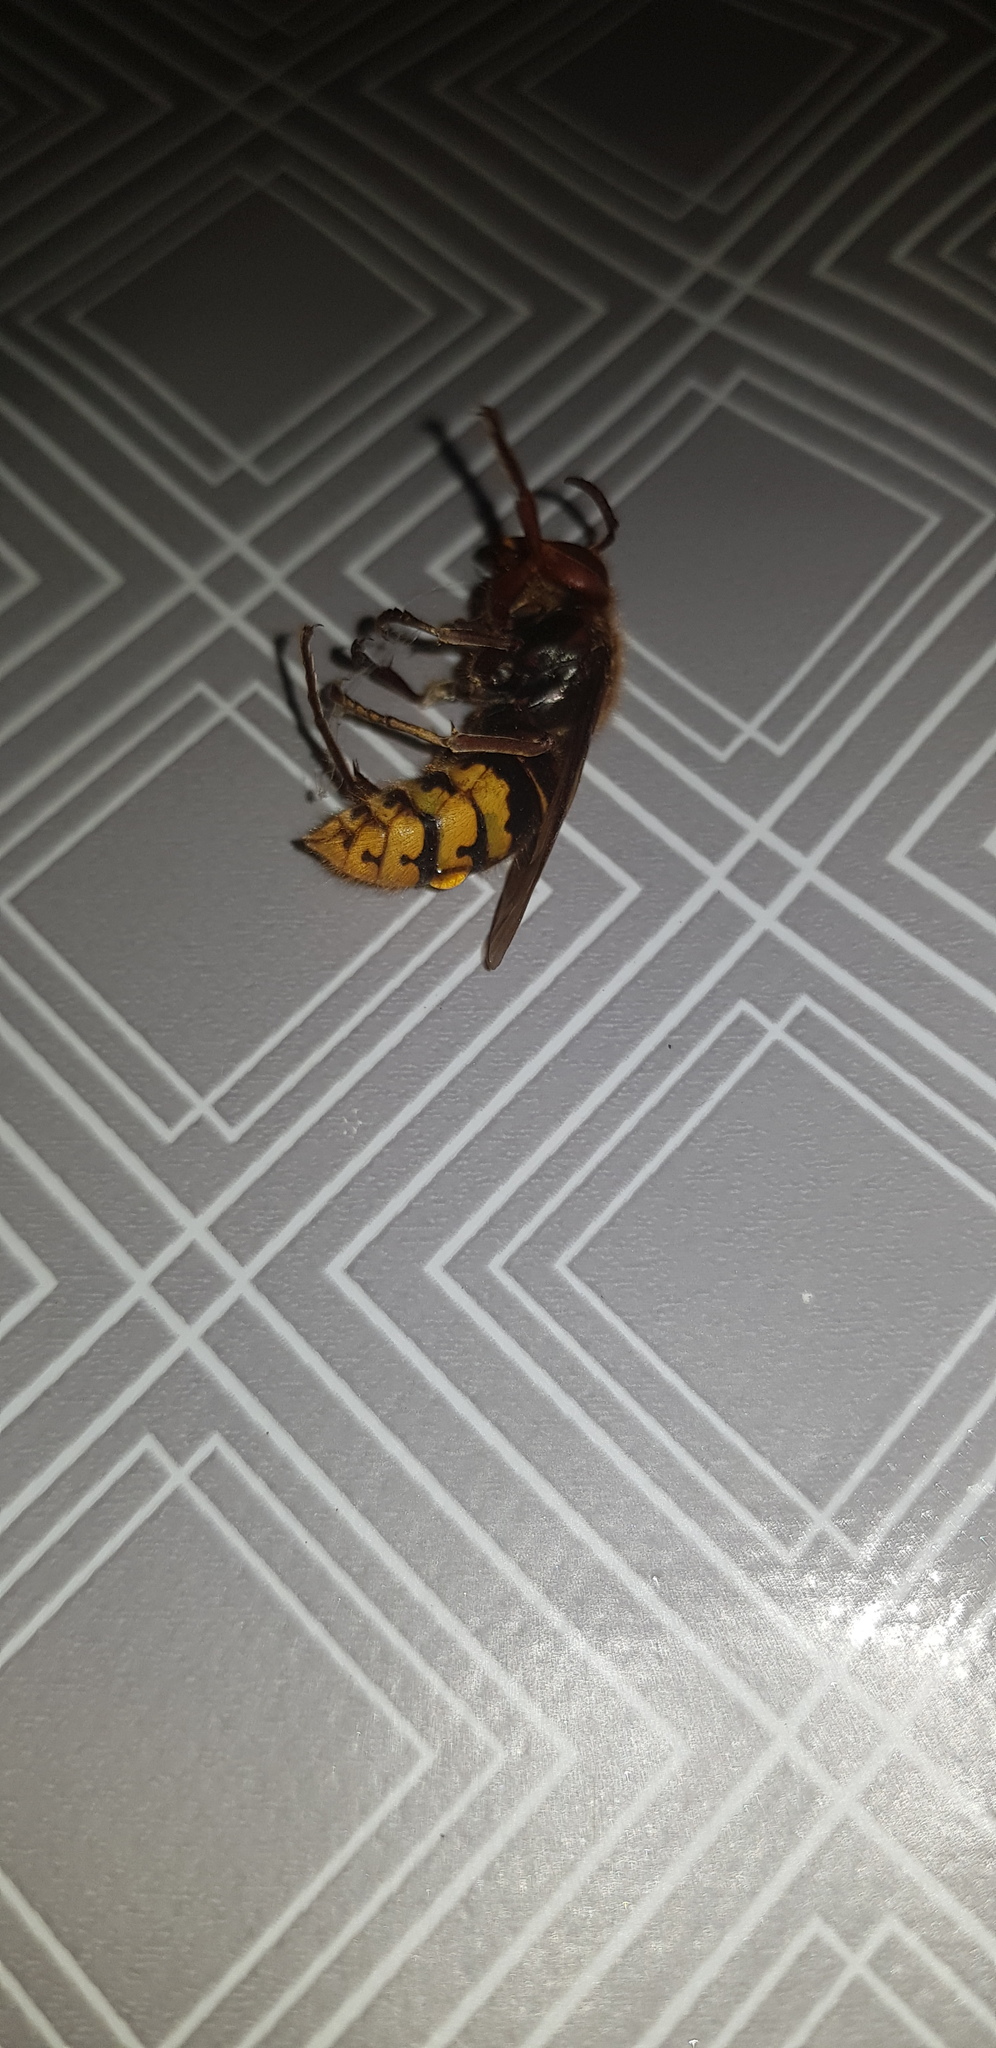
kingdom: Animalia
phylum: Arthropoda
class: Insecta
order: Hymenoptera
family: Vespidae
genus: Vespa
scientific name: Vespa crabro
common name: Hornet
